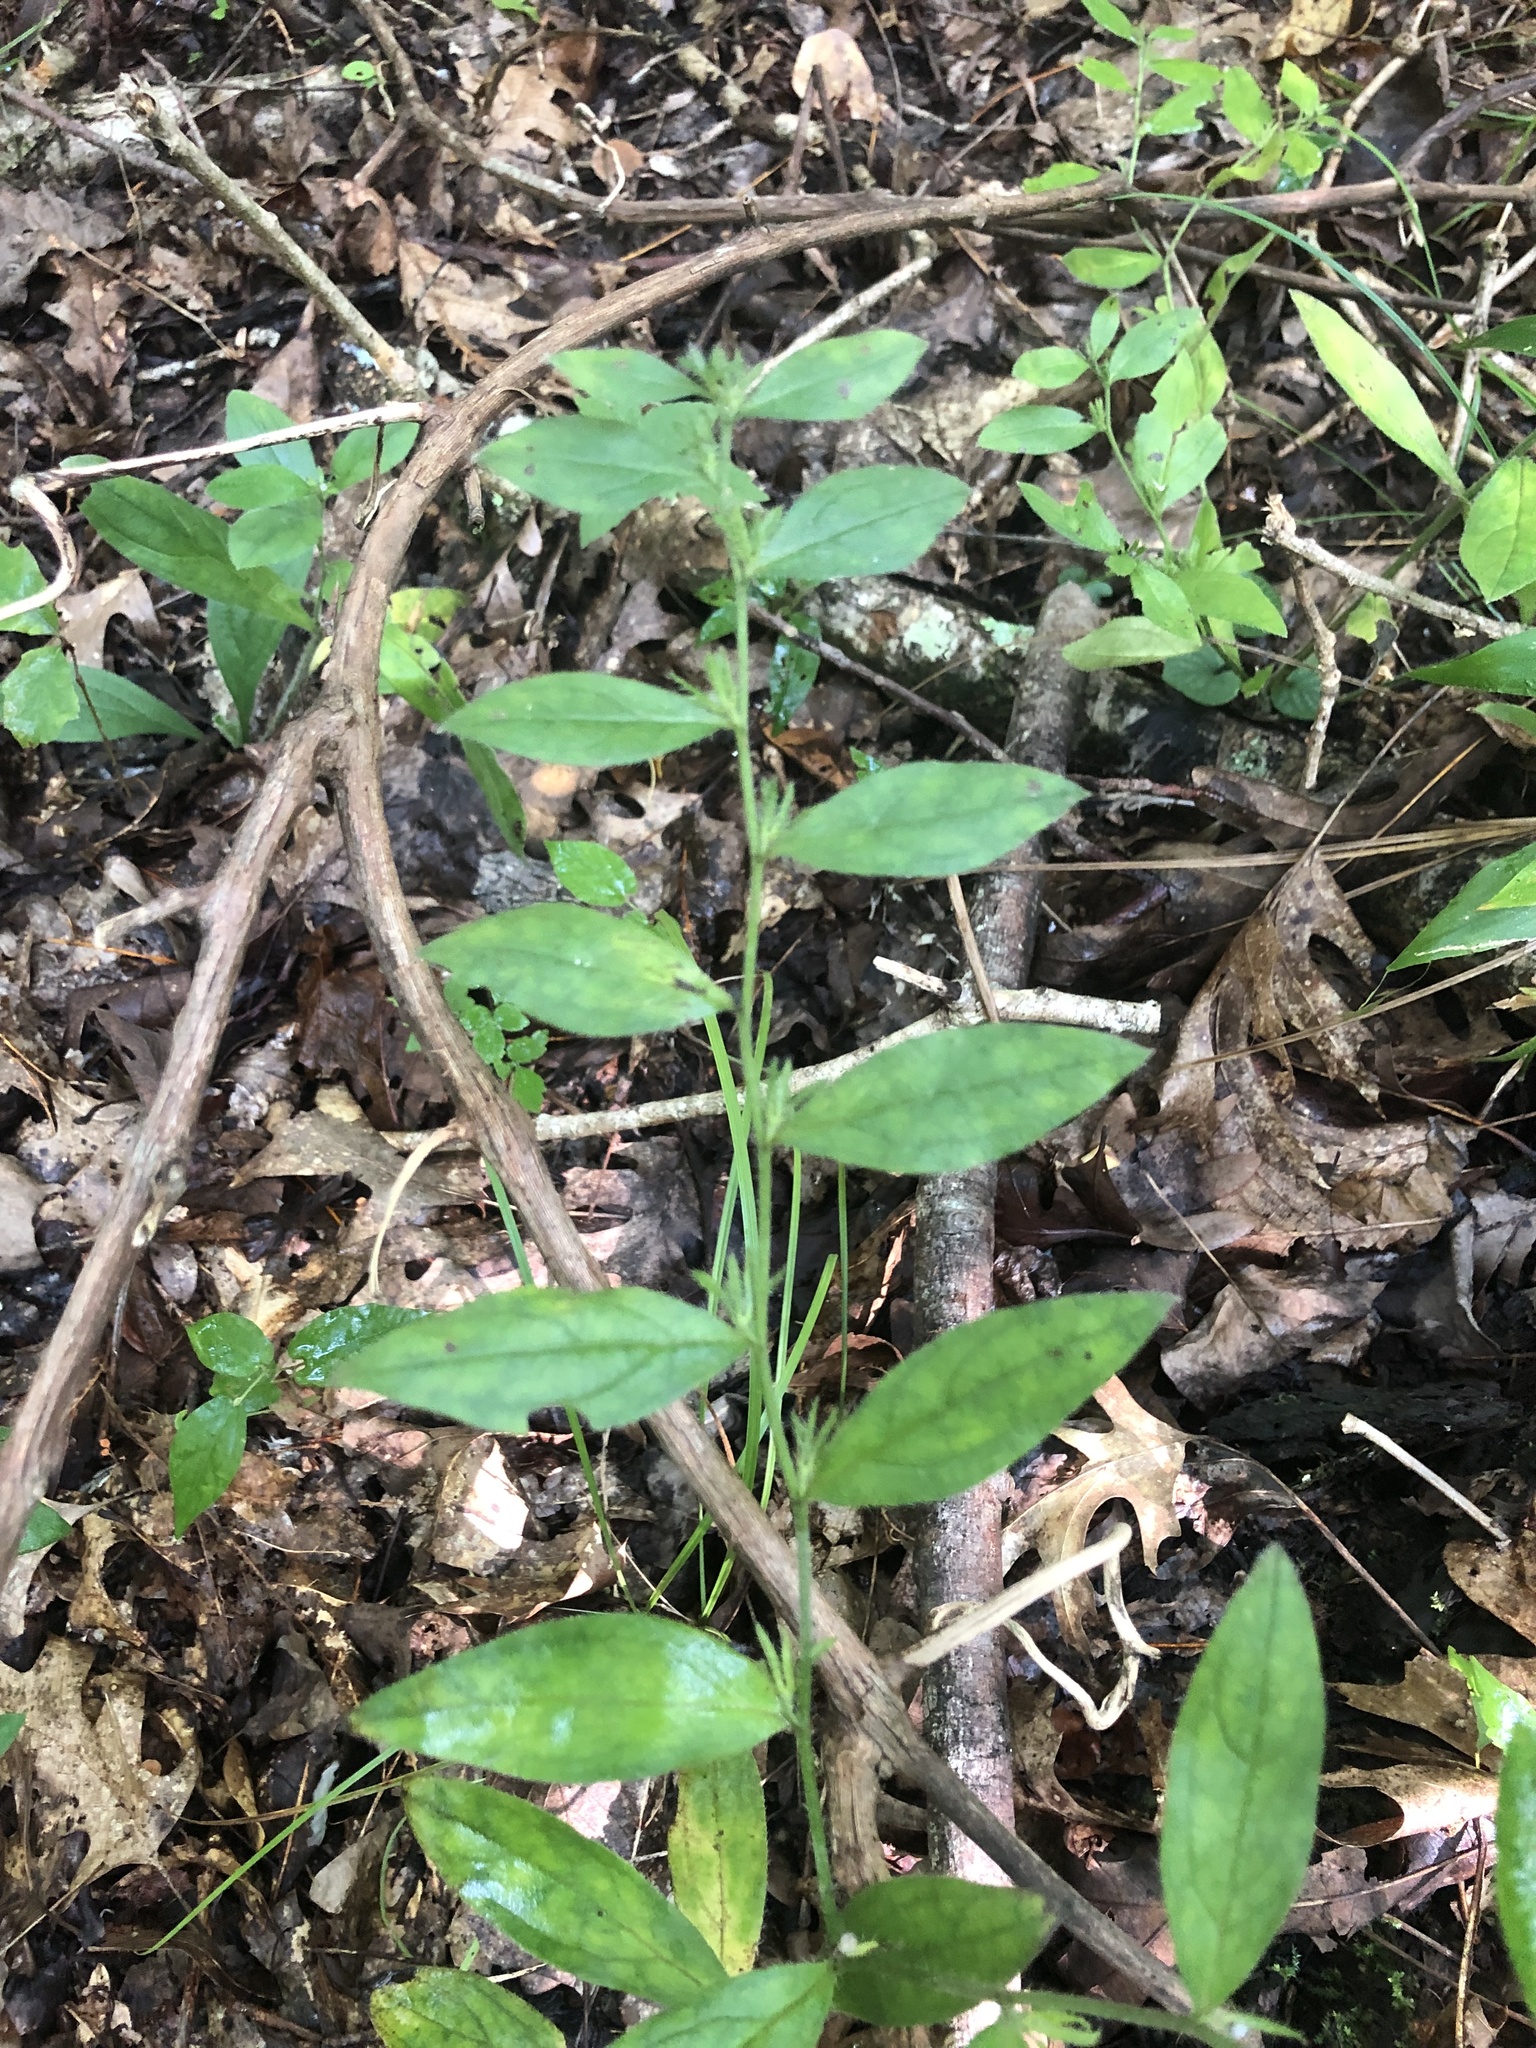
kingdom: Plantae
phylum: Tracheophyta
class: Magnoliopsida
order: Boraginales
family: Boraginaceae
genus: Lithospermum
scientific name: Lithospermum tuberosum
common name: Southern stoneseed
